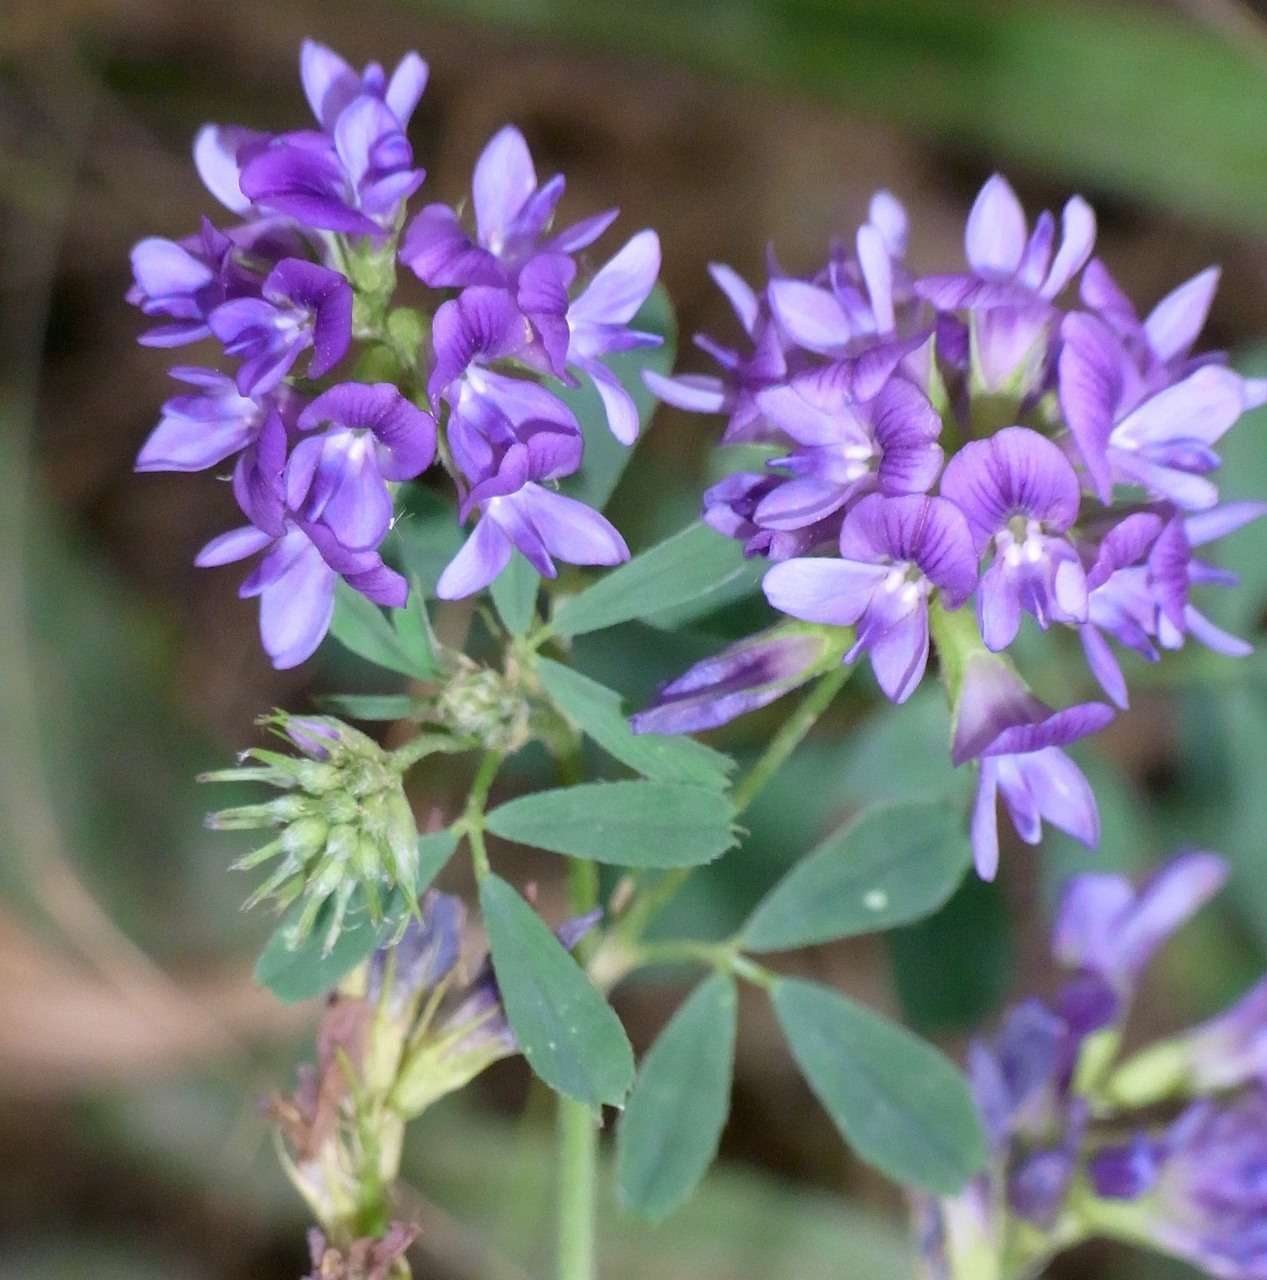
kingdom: Plantae
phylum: Tracheophyta
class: Magnoliopsida
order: Fabales
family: Fabaceae
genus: Medicago
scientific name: Medicago sativa
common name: Alfalfa
